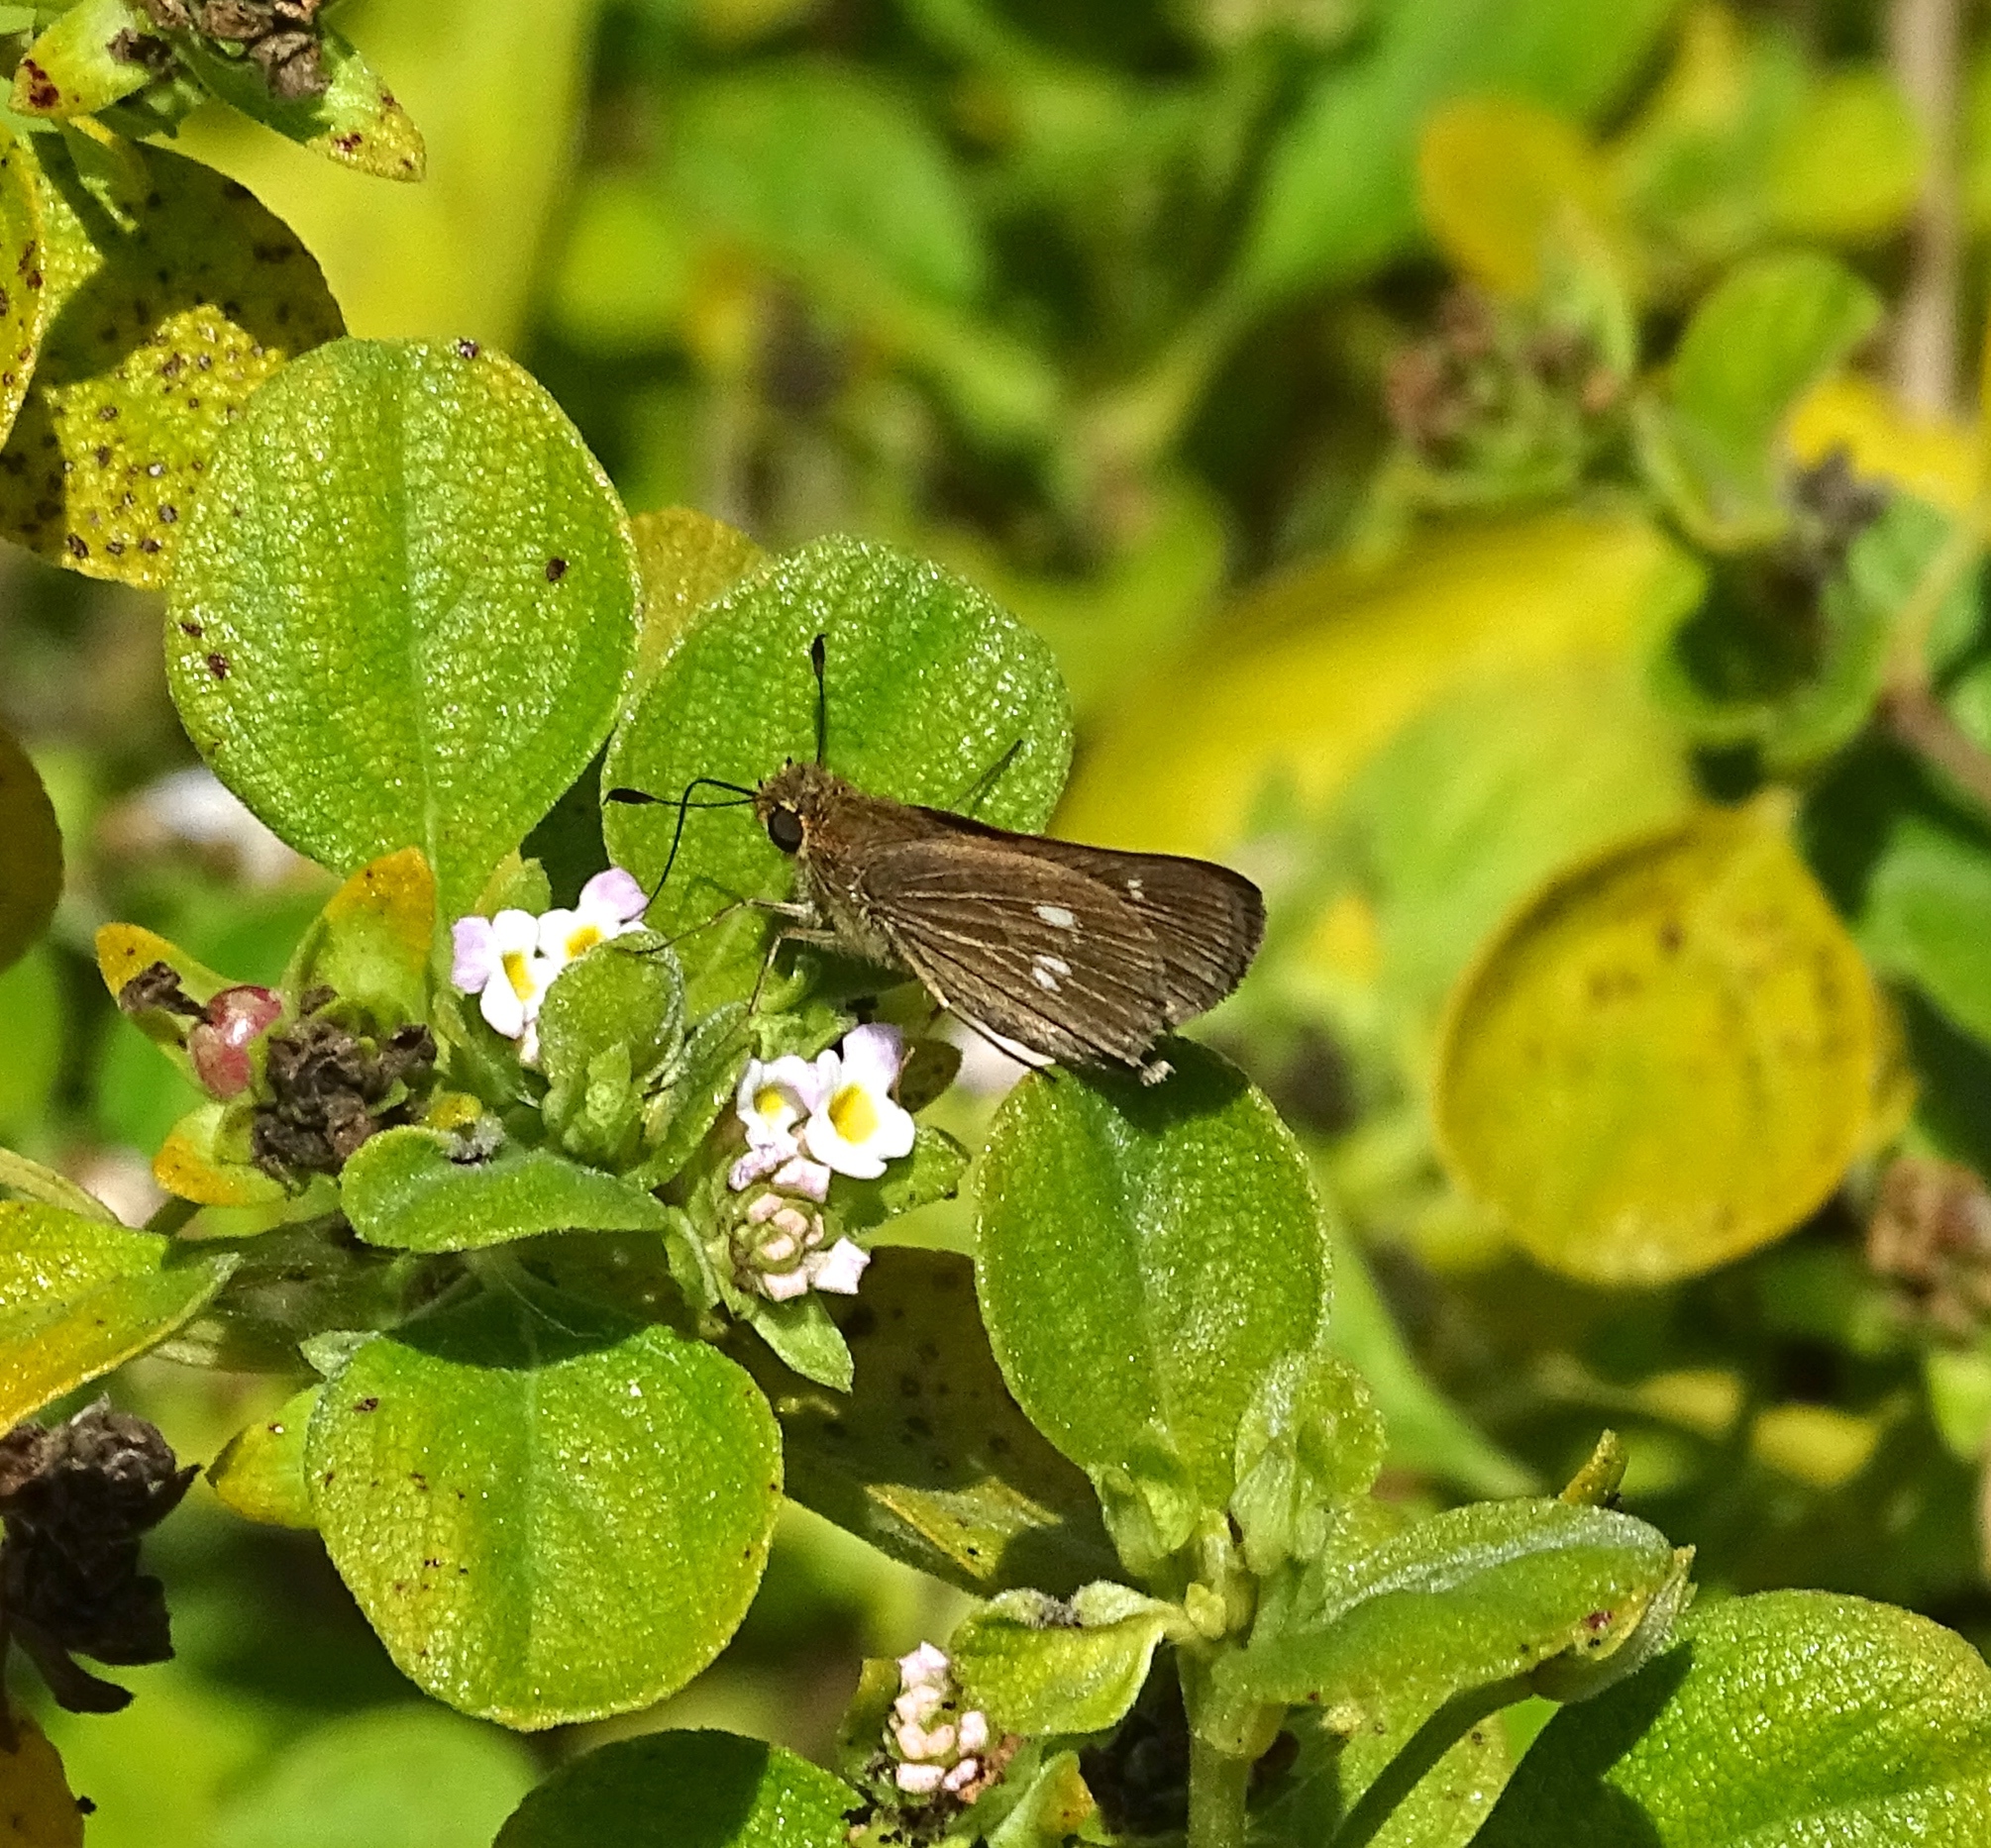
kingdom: Animalia
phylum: Arthropoda
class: Insecta
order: Lepidoptera
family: Hesperiidae
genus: Panoquina
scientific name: Panoquina panoquinoides
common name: Beach skipper
